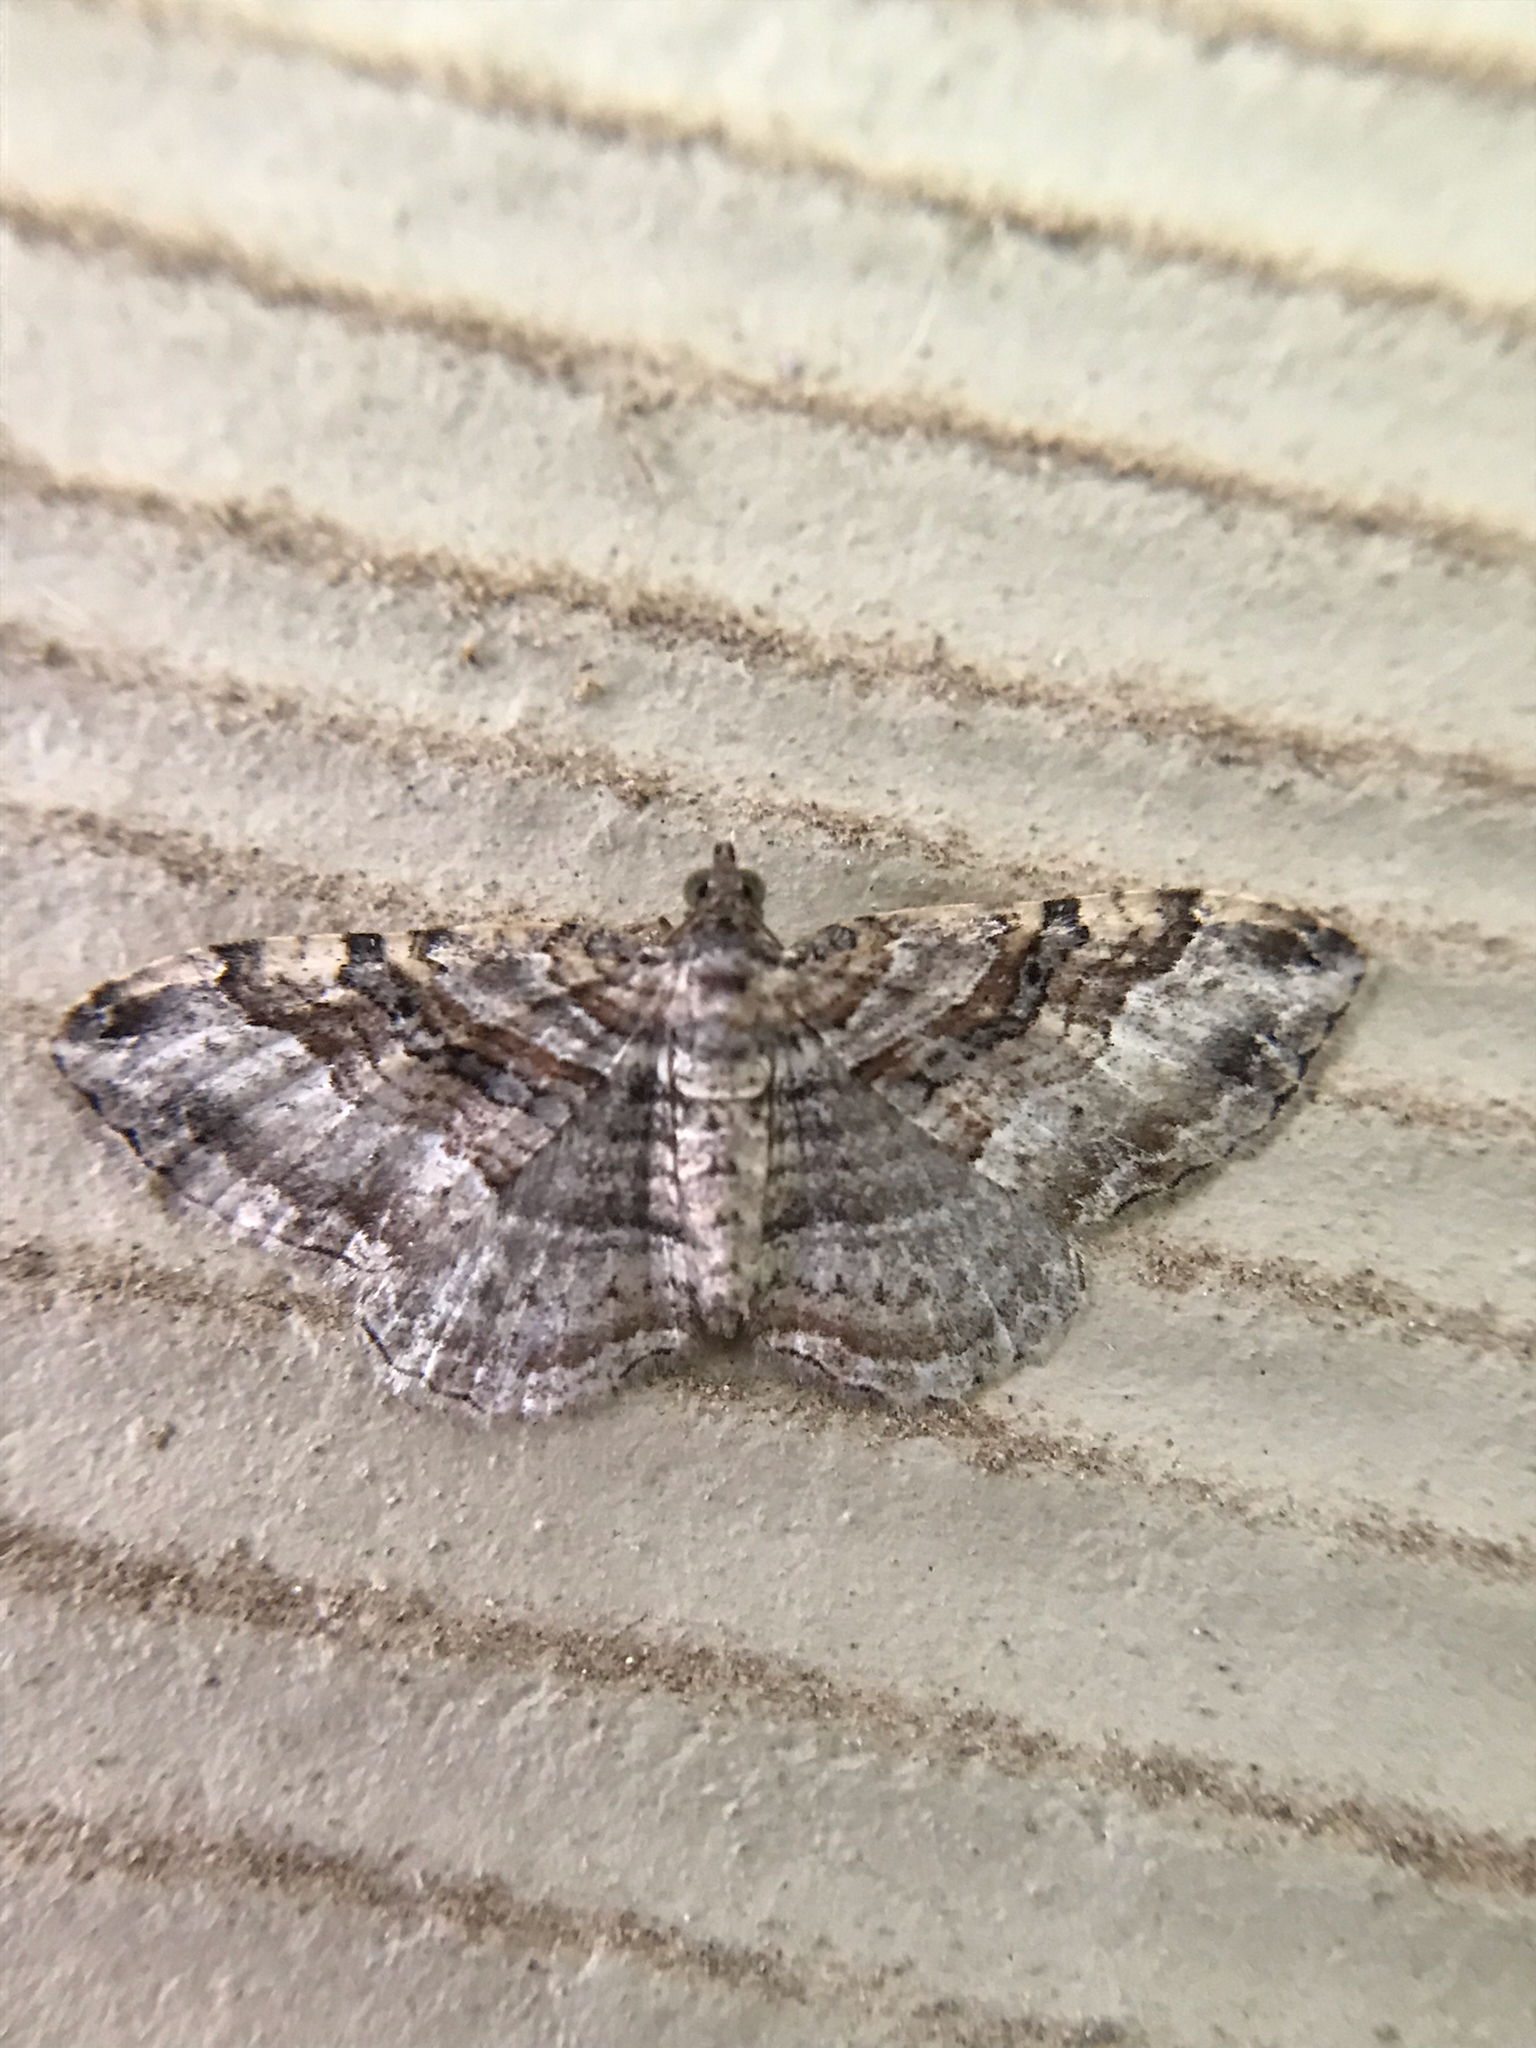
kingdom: Animalia
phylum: Arthropoda
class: Insecta
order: Lepidoptera
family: Geometridae
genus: Costaconvexa
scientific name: Costaconvexa centrostrigaria
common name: Bent-line carpet
